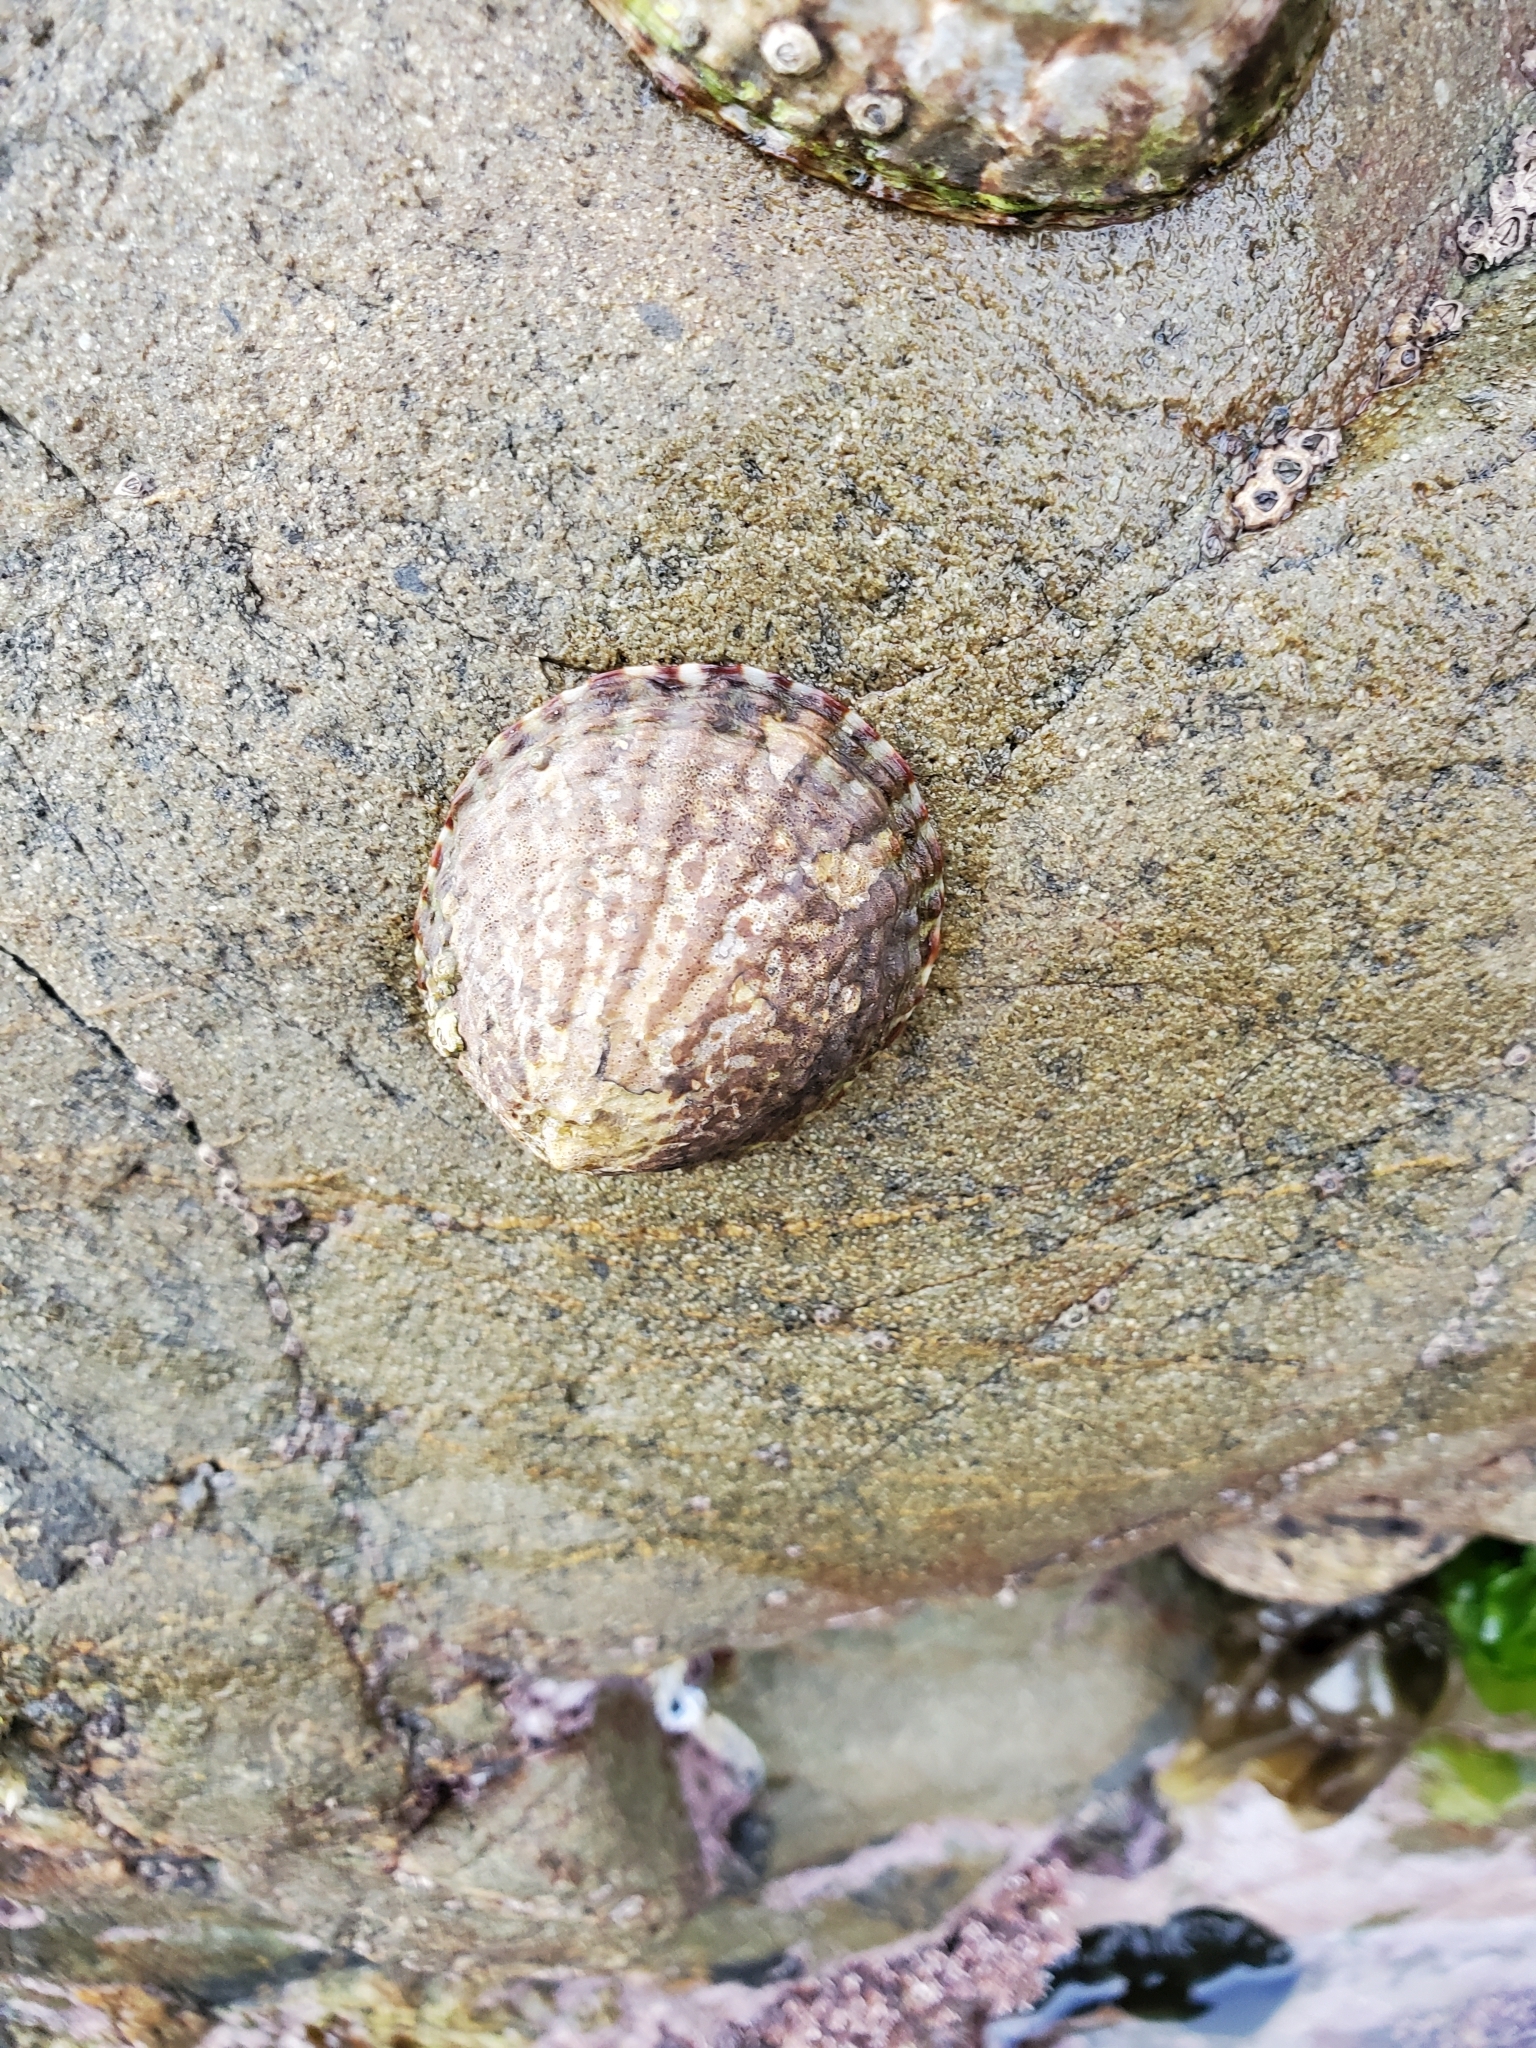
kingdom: Animalia
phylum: Mollusca
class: Gastropoda
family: Nacellidae
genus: Cellana
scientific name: Cellana denticulata
